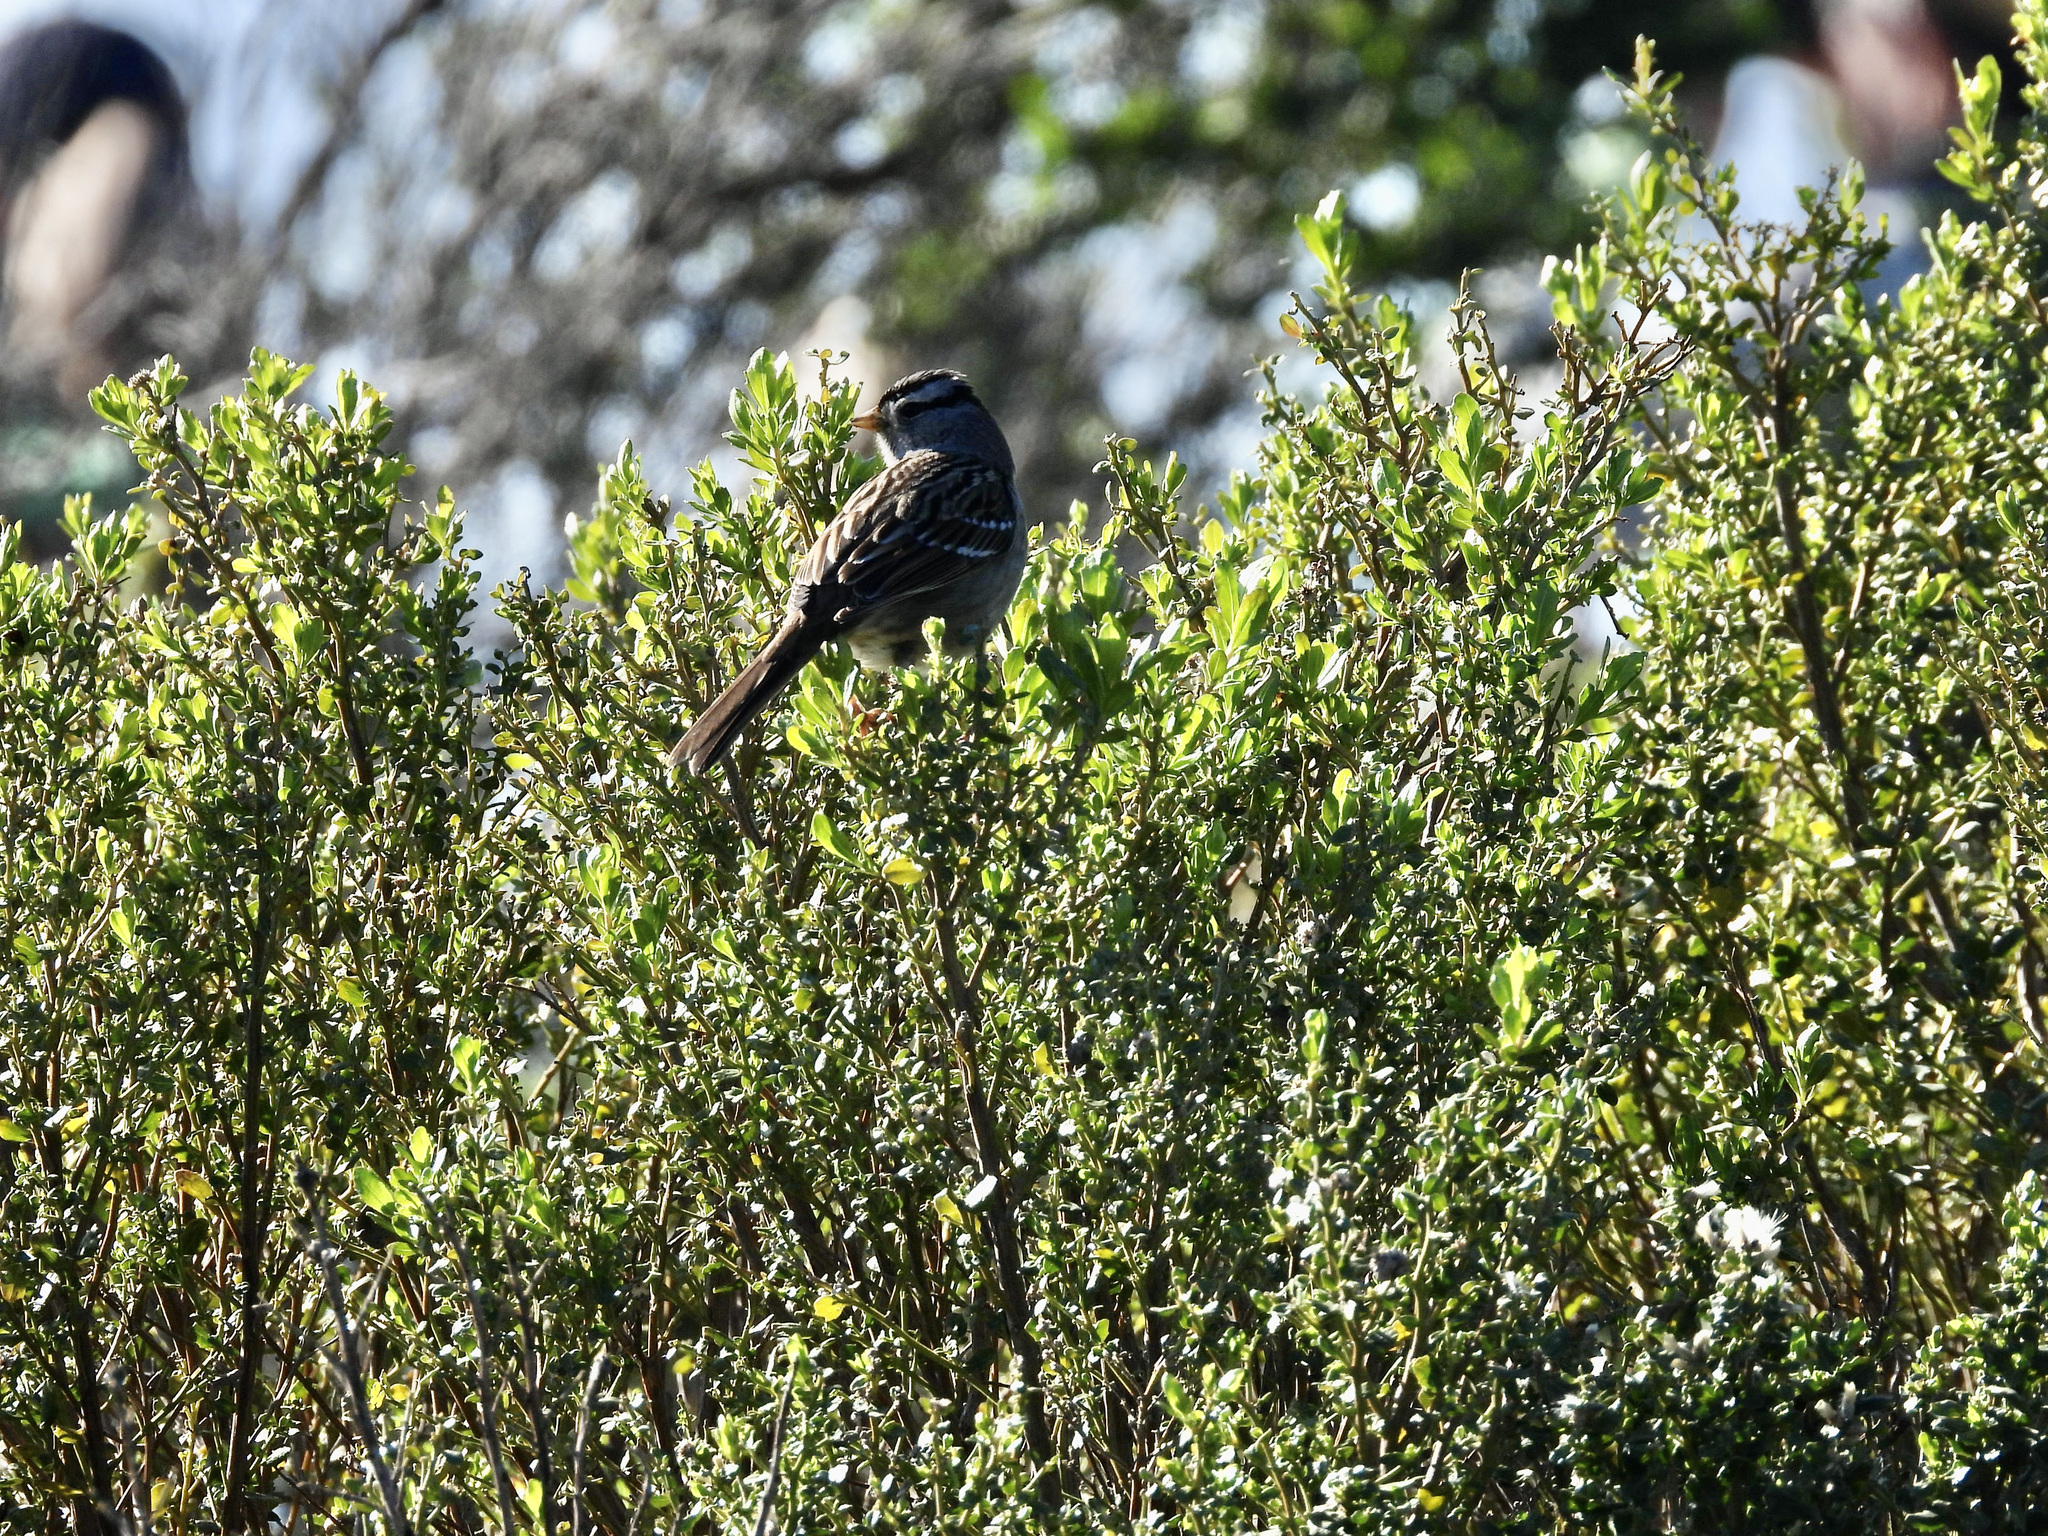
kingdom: Animalia
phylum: Chordata
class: Aves
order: Passeriformes
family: Passerellidae
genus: Zonotrichia
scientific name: Zonotrichia leucophrys
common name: White-crowned sparrow
